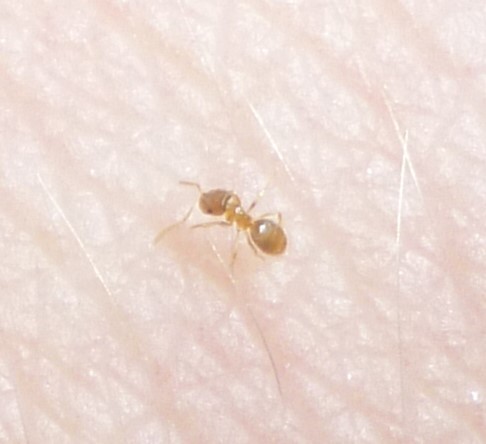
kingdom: Animalia
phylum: Arthropoda
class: Insecta
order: Hymenoptera
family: Formicidae
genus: Brachymyrmex
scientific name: Brachymyrmex depilis
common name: Hairless rover ant
